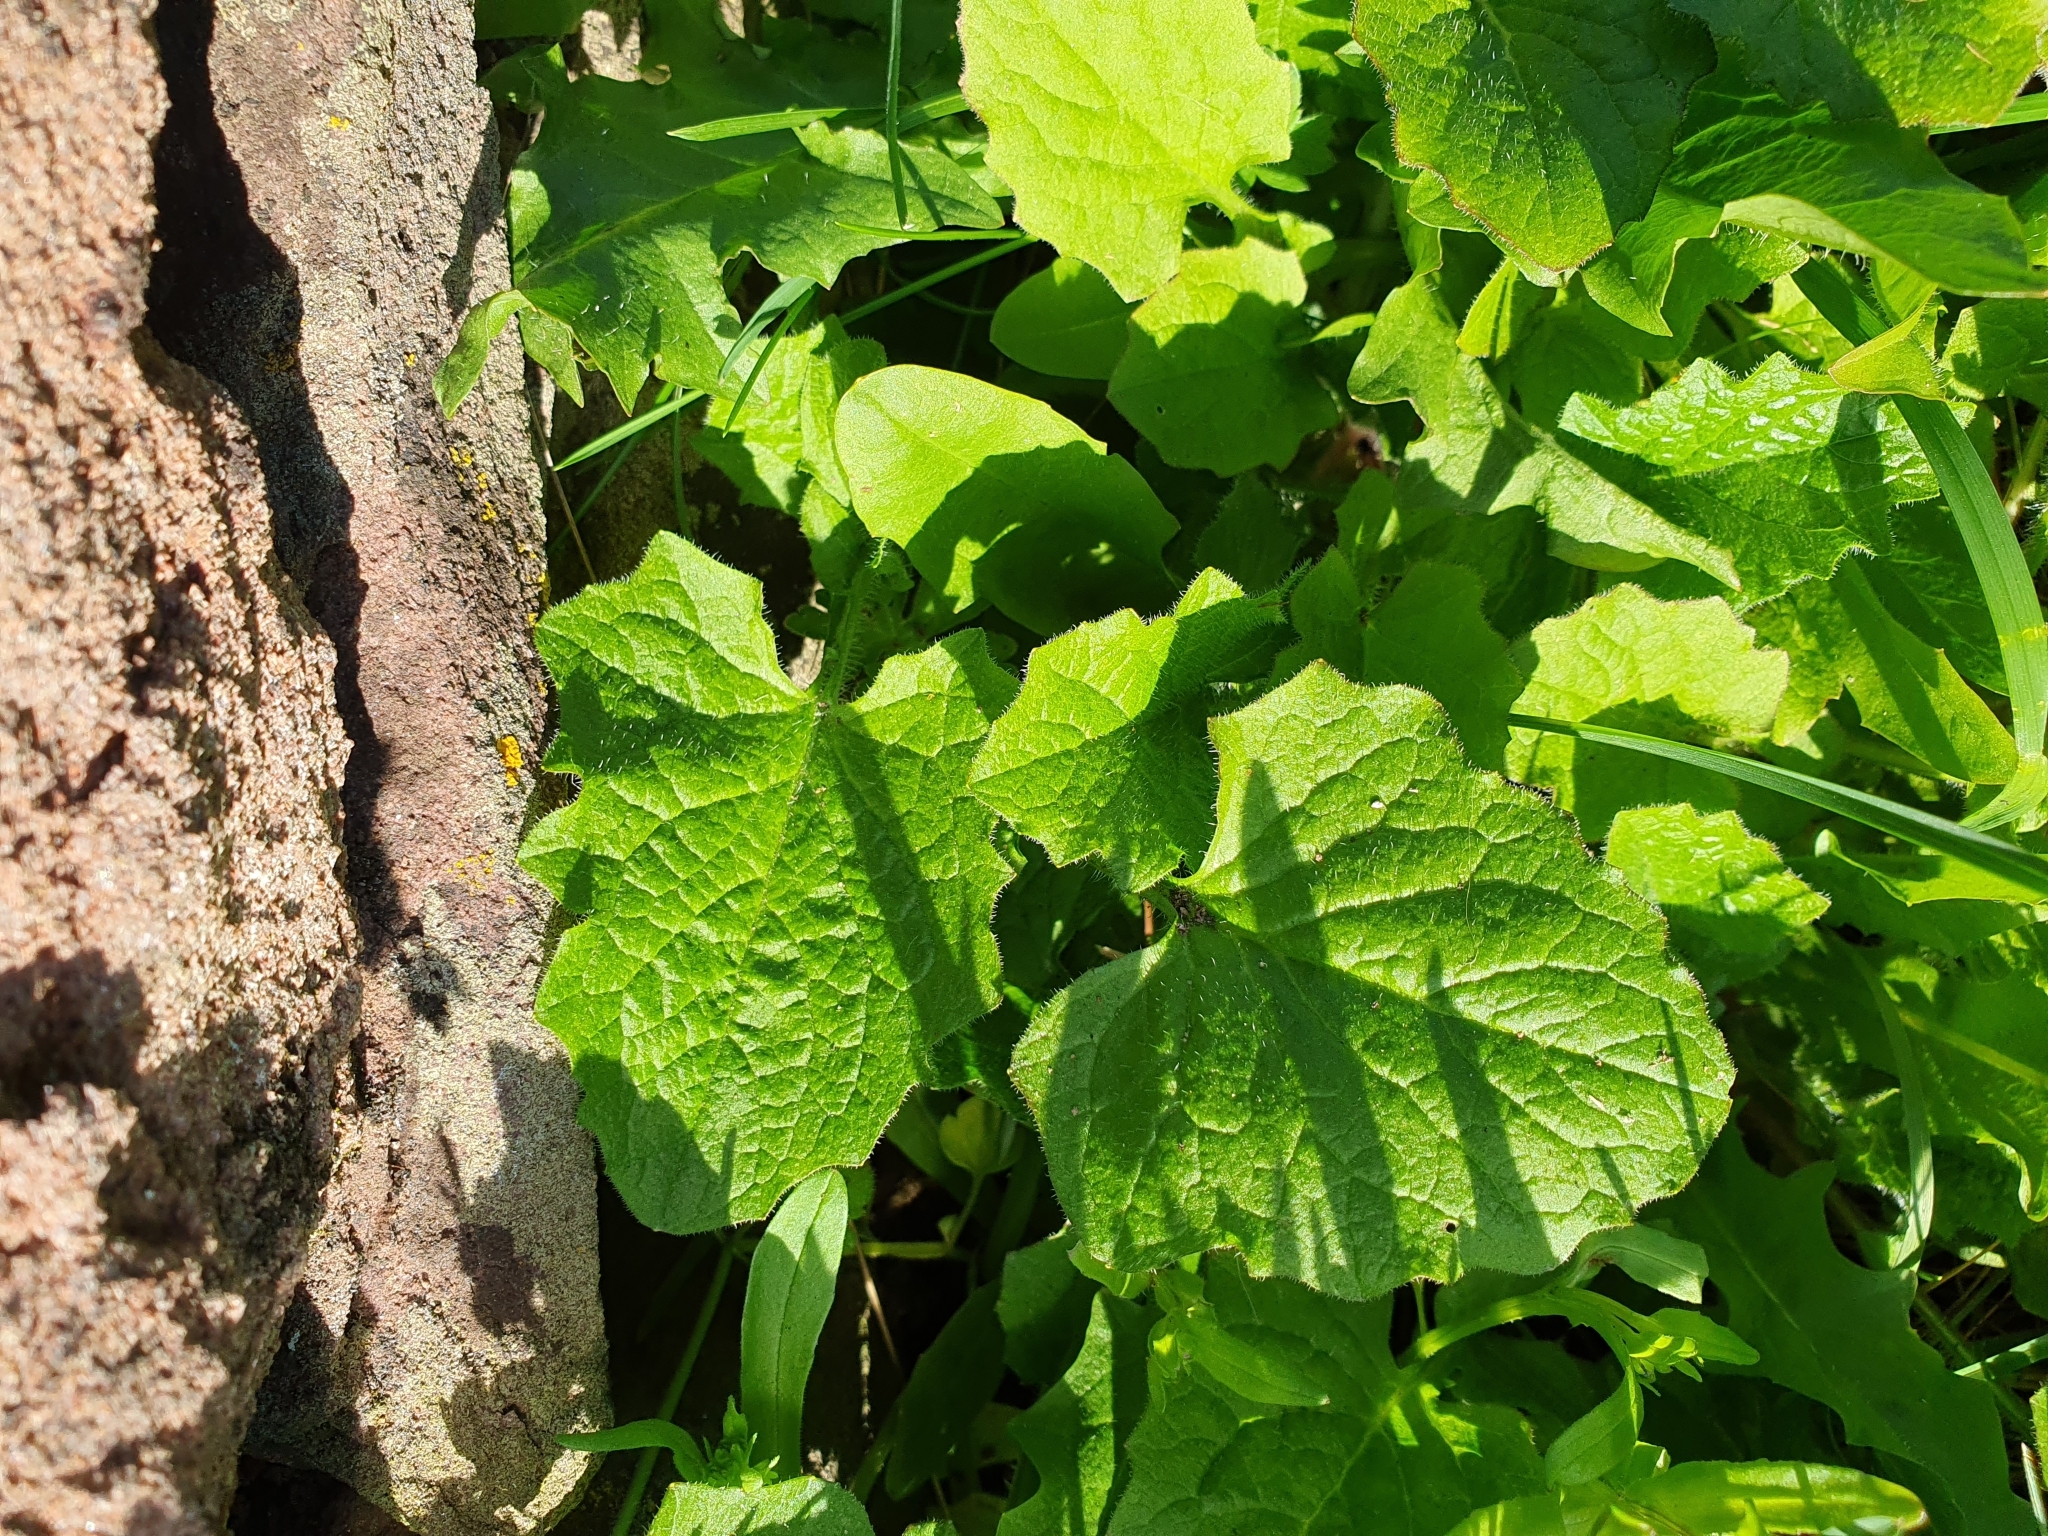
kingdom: Plantae
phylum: Tracheophyta
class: Magnoliopsida
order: Brassicales
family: Brassicaceae
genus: Alliaria
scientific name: Alliaria petiolata
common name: Garlic mustard
